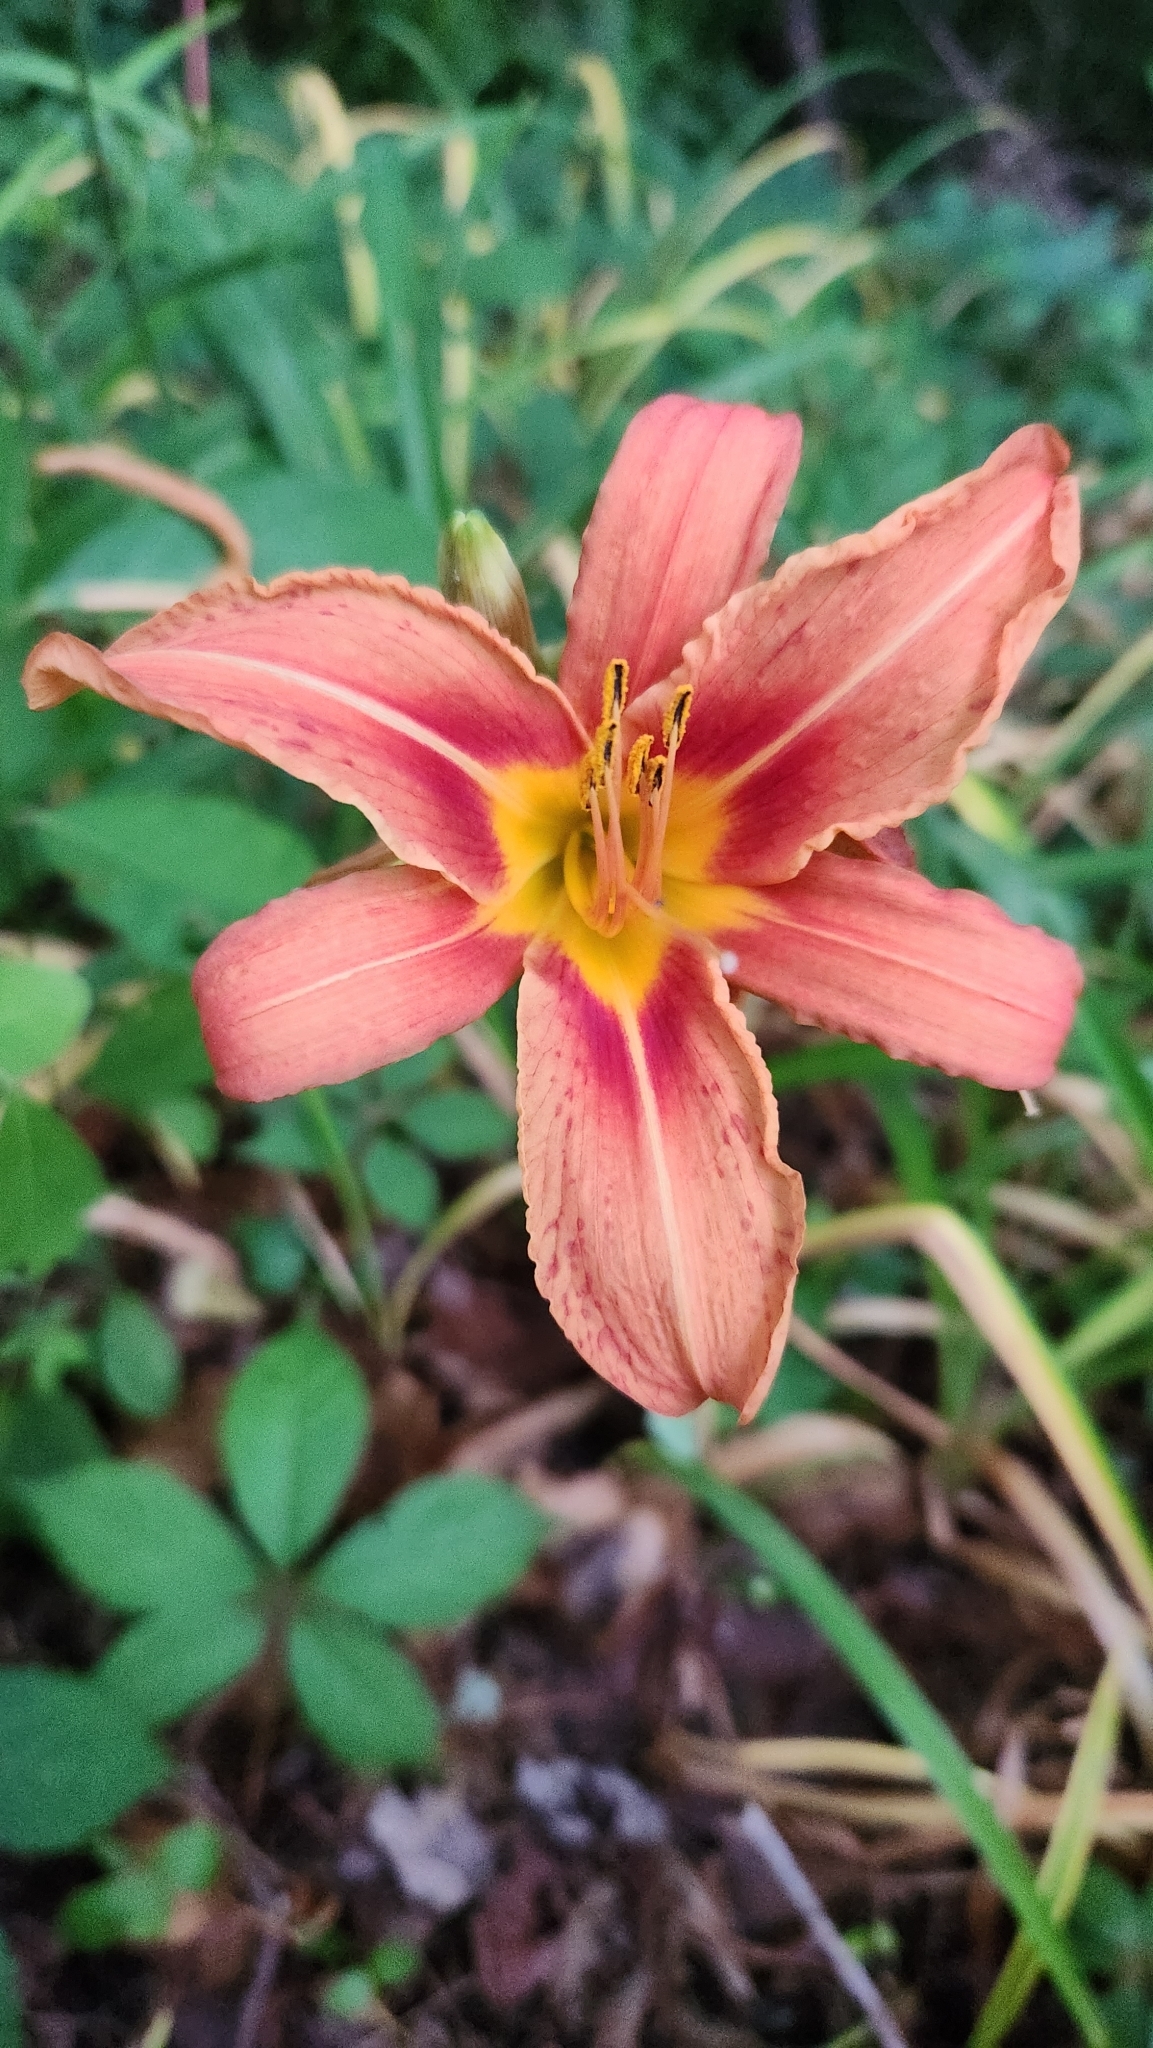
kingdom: Plantae
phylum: Tracheophyta
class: Liliopsida
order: Asparagales
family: Asphodelaceae
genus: Hemerocallis
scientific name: Hemerocallis fulva
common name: Orange day-lily
